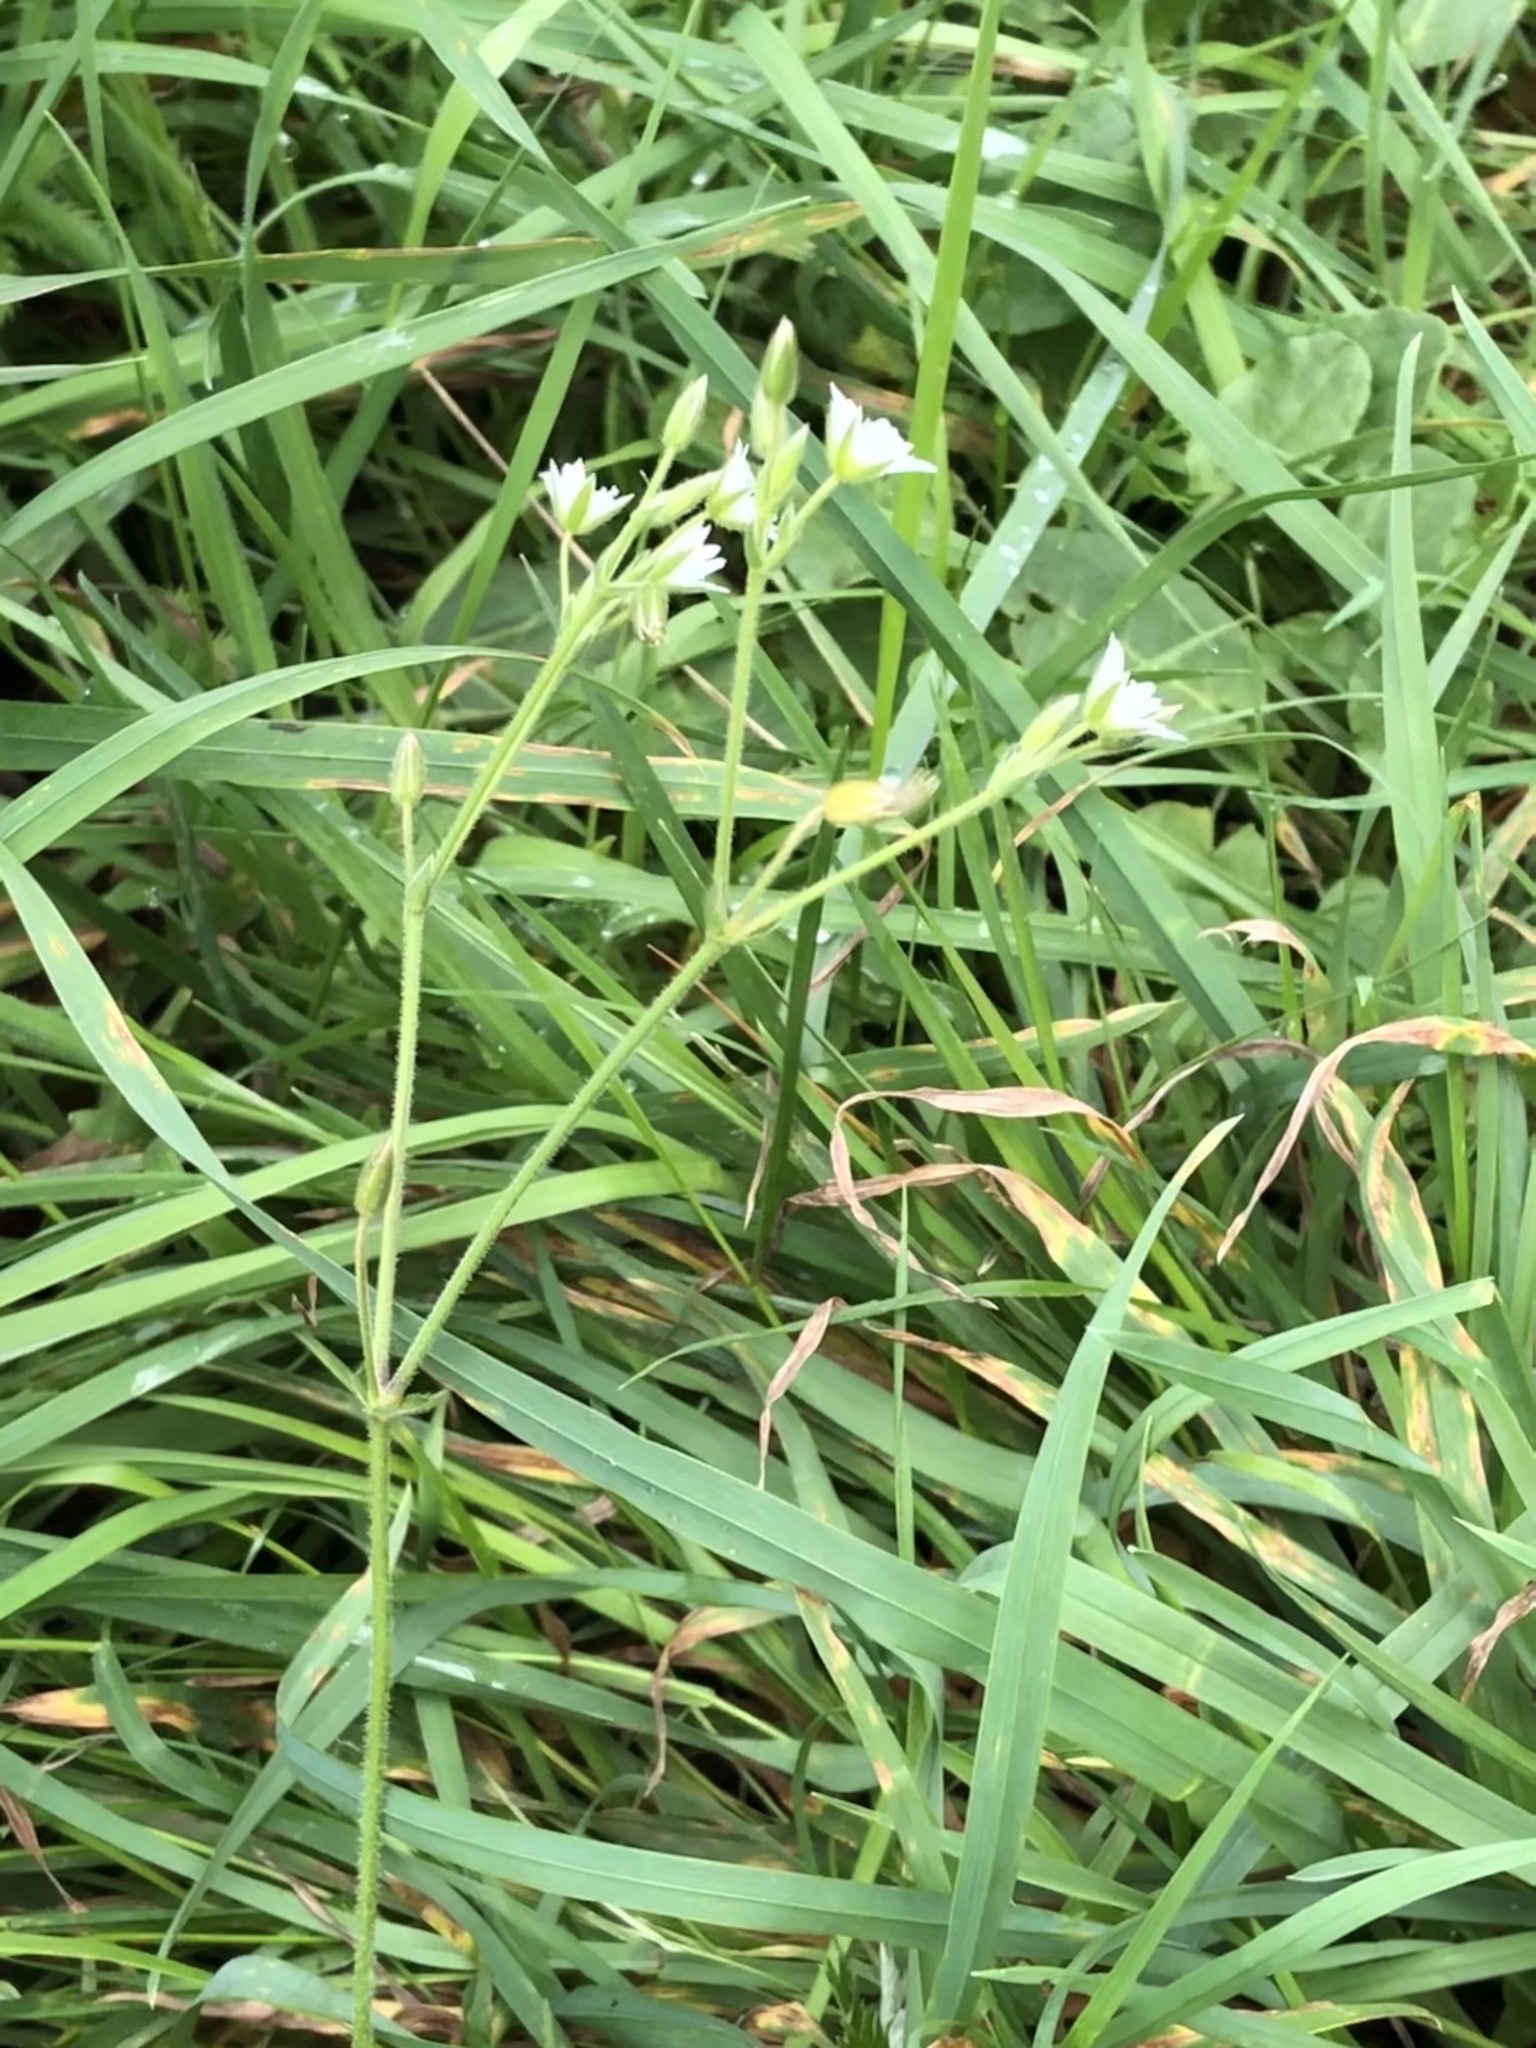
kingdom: Plantae
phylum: Tracheophyta
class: Magnoliopsida
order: Caryophyllales
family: Caryophyllaceae
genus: Cerastium
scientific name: Cerastium fontanum
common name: Common mouse-ear
